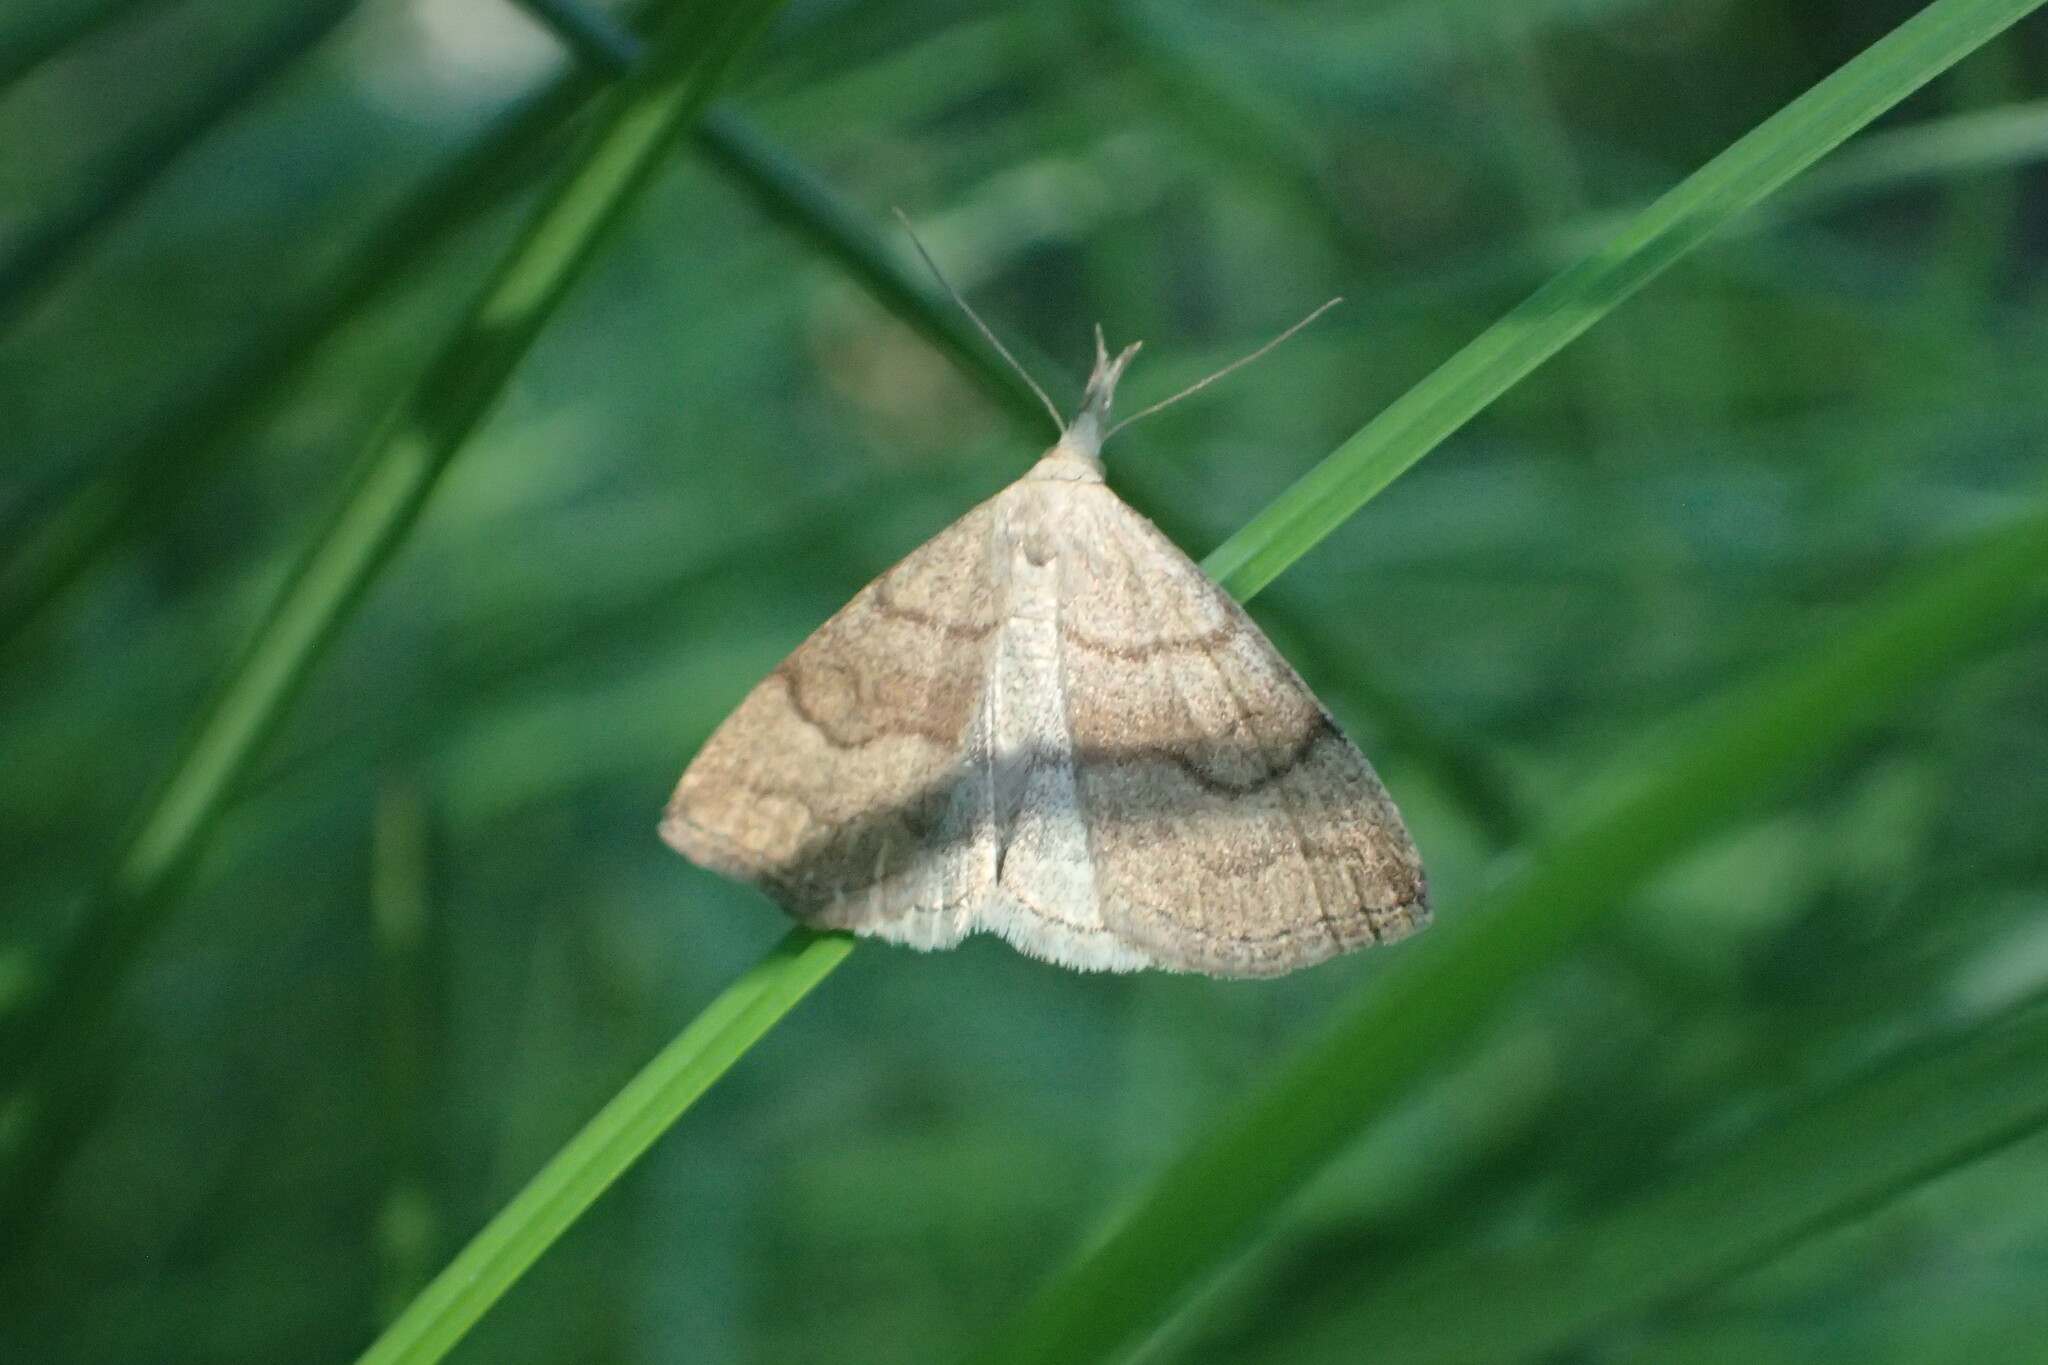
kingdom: Animalia
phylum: Arthropoda
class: Insecta
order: Lepidoptera
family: Erebidae
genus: Phalaenostola
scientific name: Phalaenostola metonalis
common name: Pale phalaenostola moth
